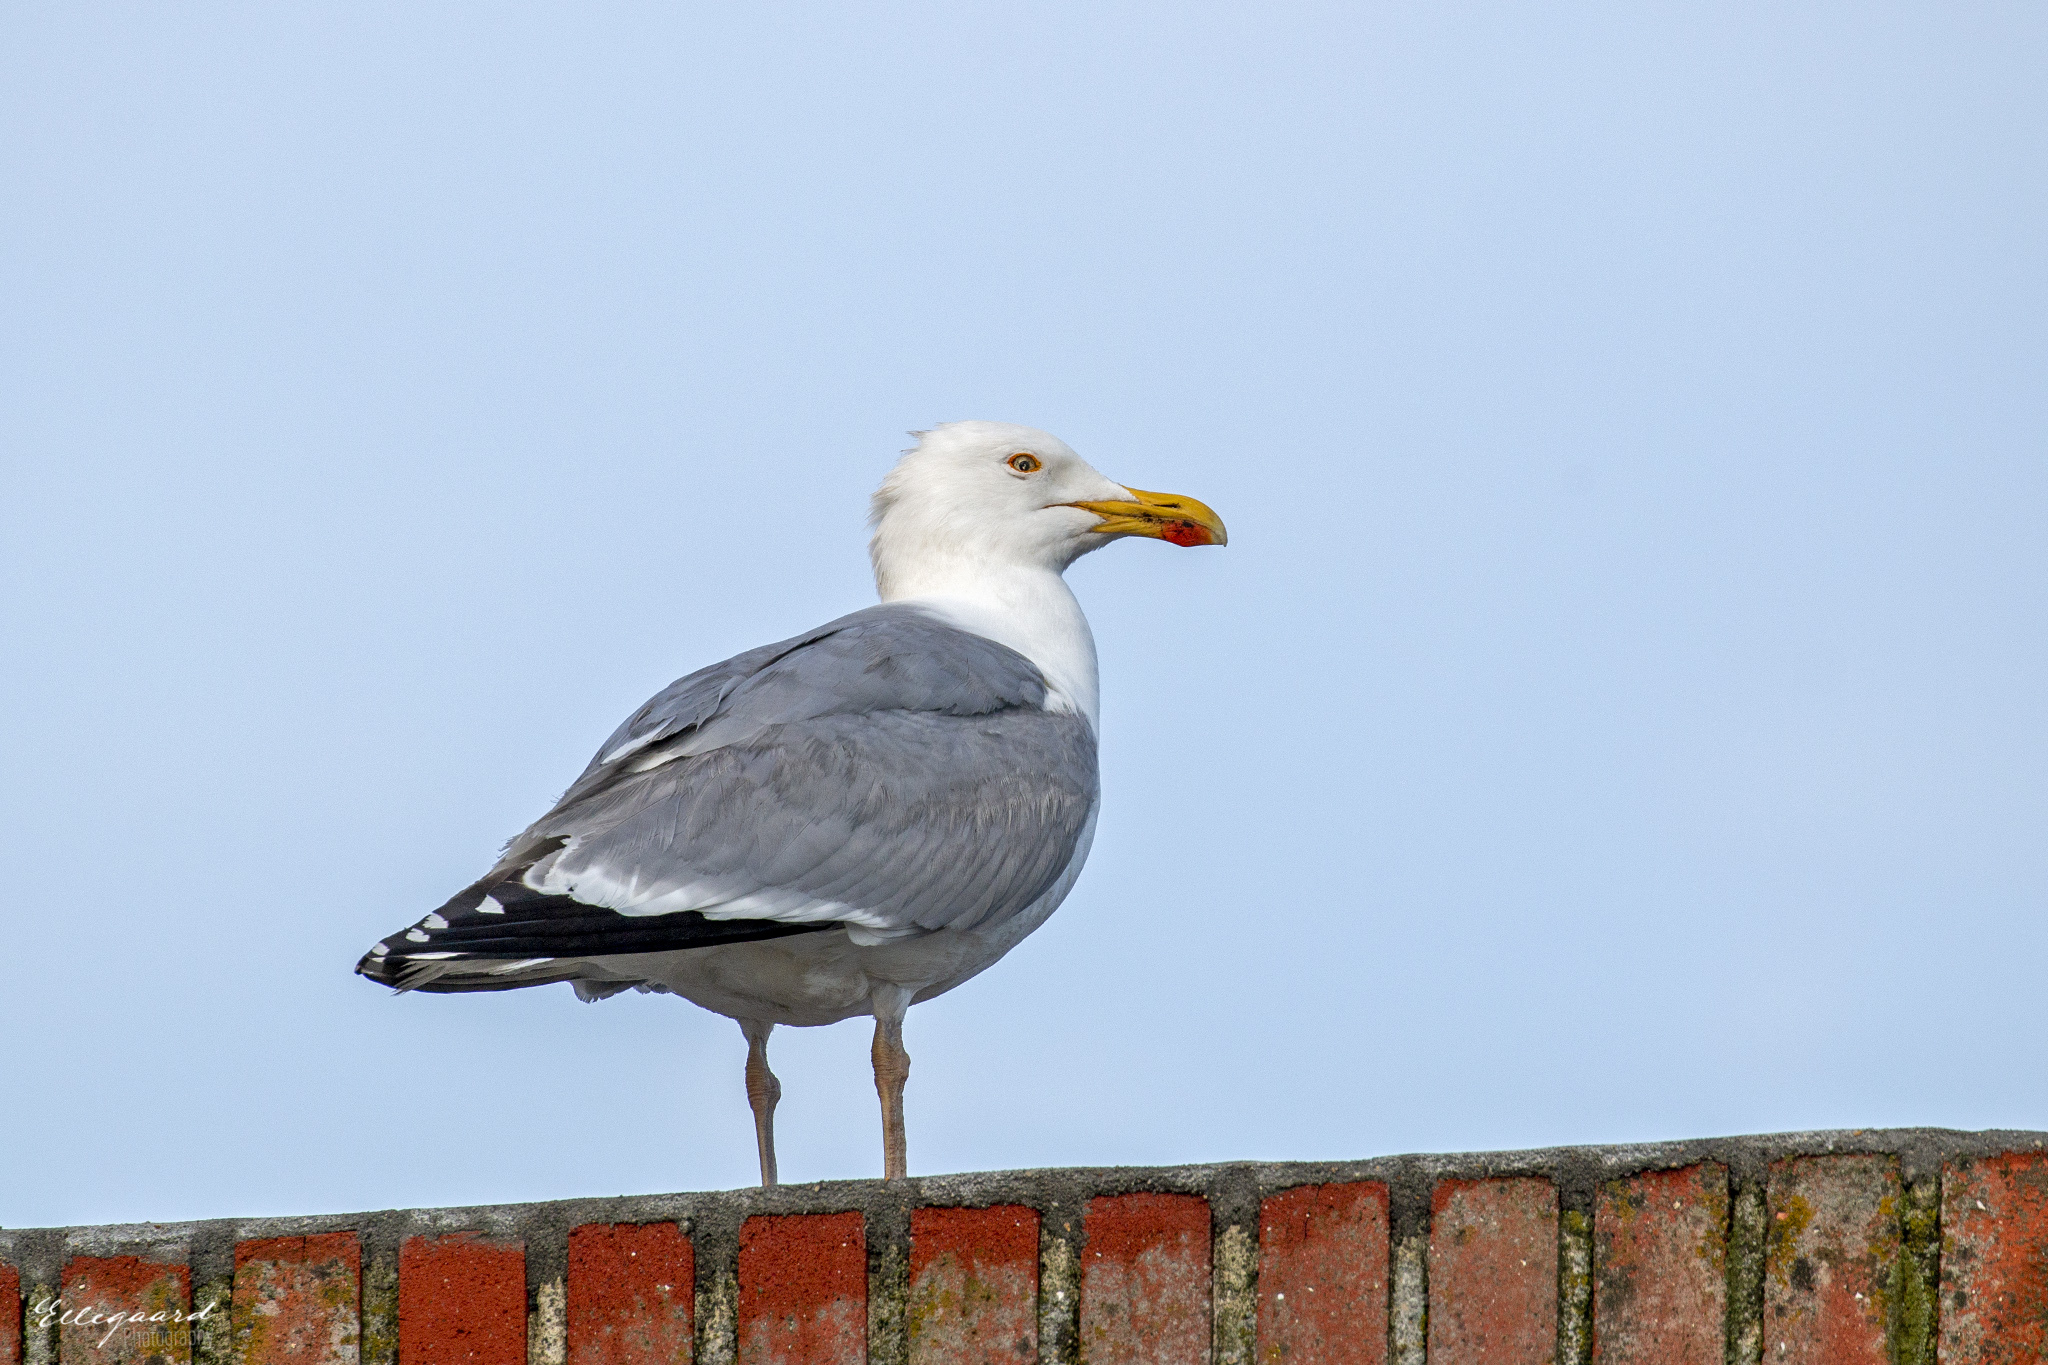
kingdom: Animalia
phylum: Chordata
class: Aves
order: Charadriiformes
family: Laridae
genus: Larus
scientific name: Larus fuscus
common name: Lesser black-backed gull
